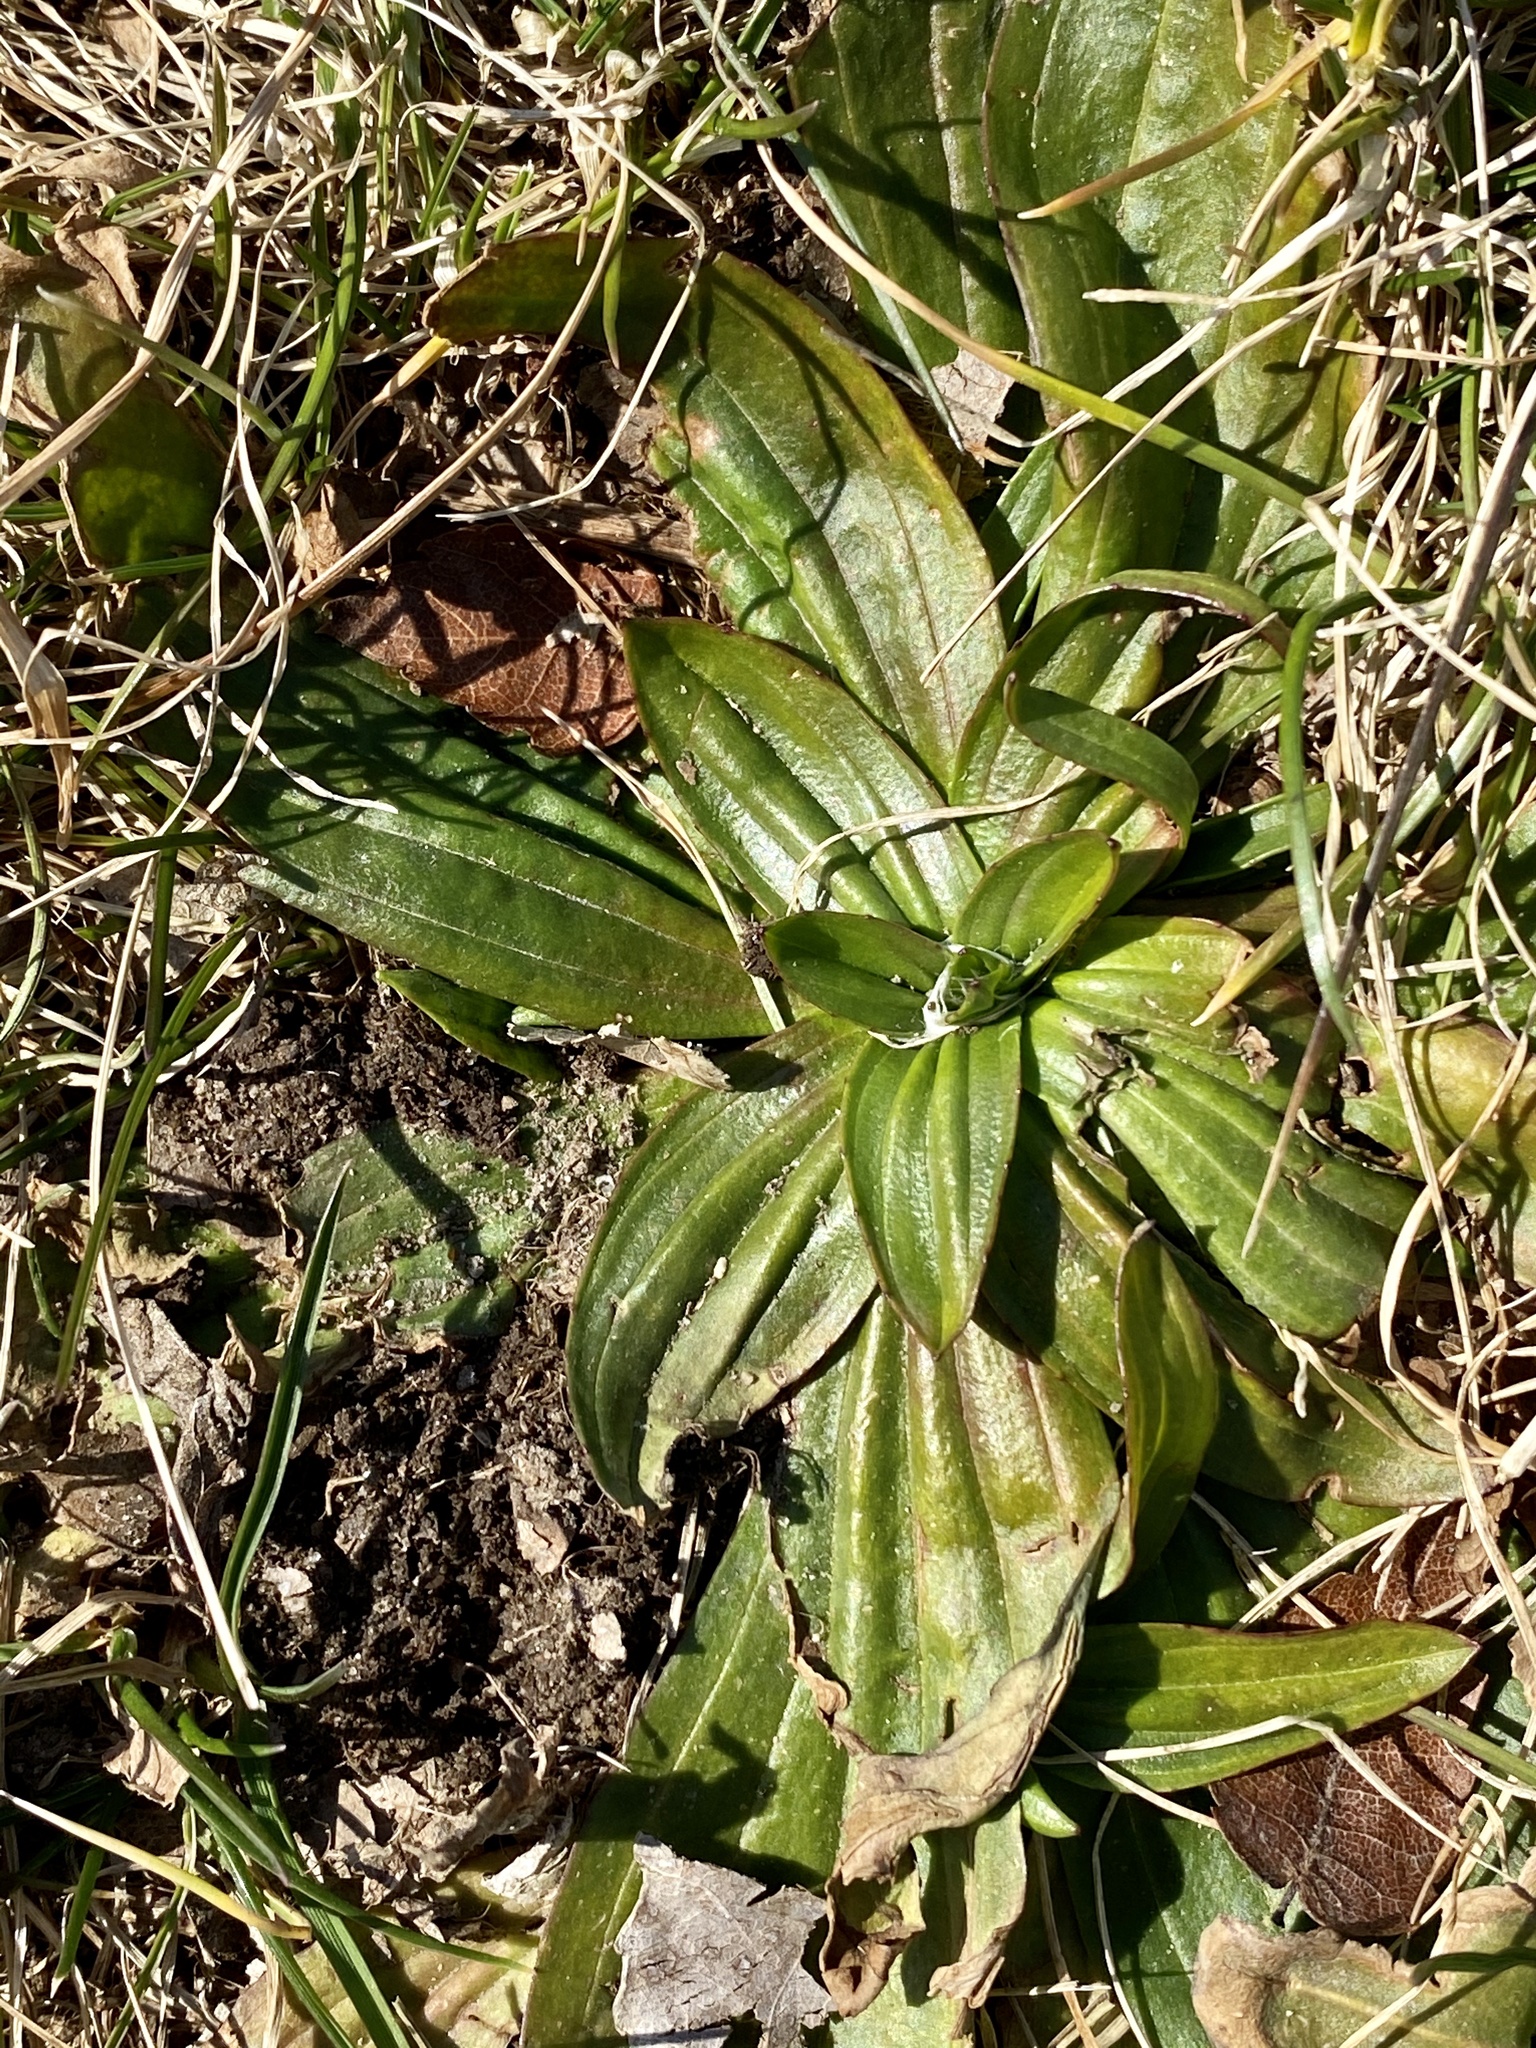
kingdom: Plantae
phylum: Tracheophyta
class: Magnoliopsida
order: Lamiales
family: Plantaginaceae
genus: Plantago
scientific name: Plantago lanceolata
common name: Ribwort plantain
